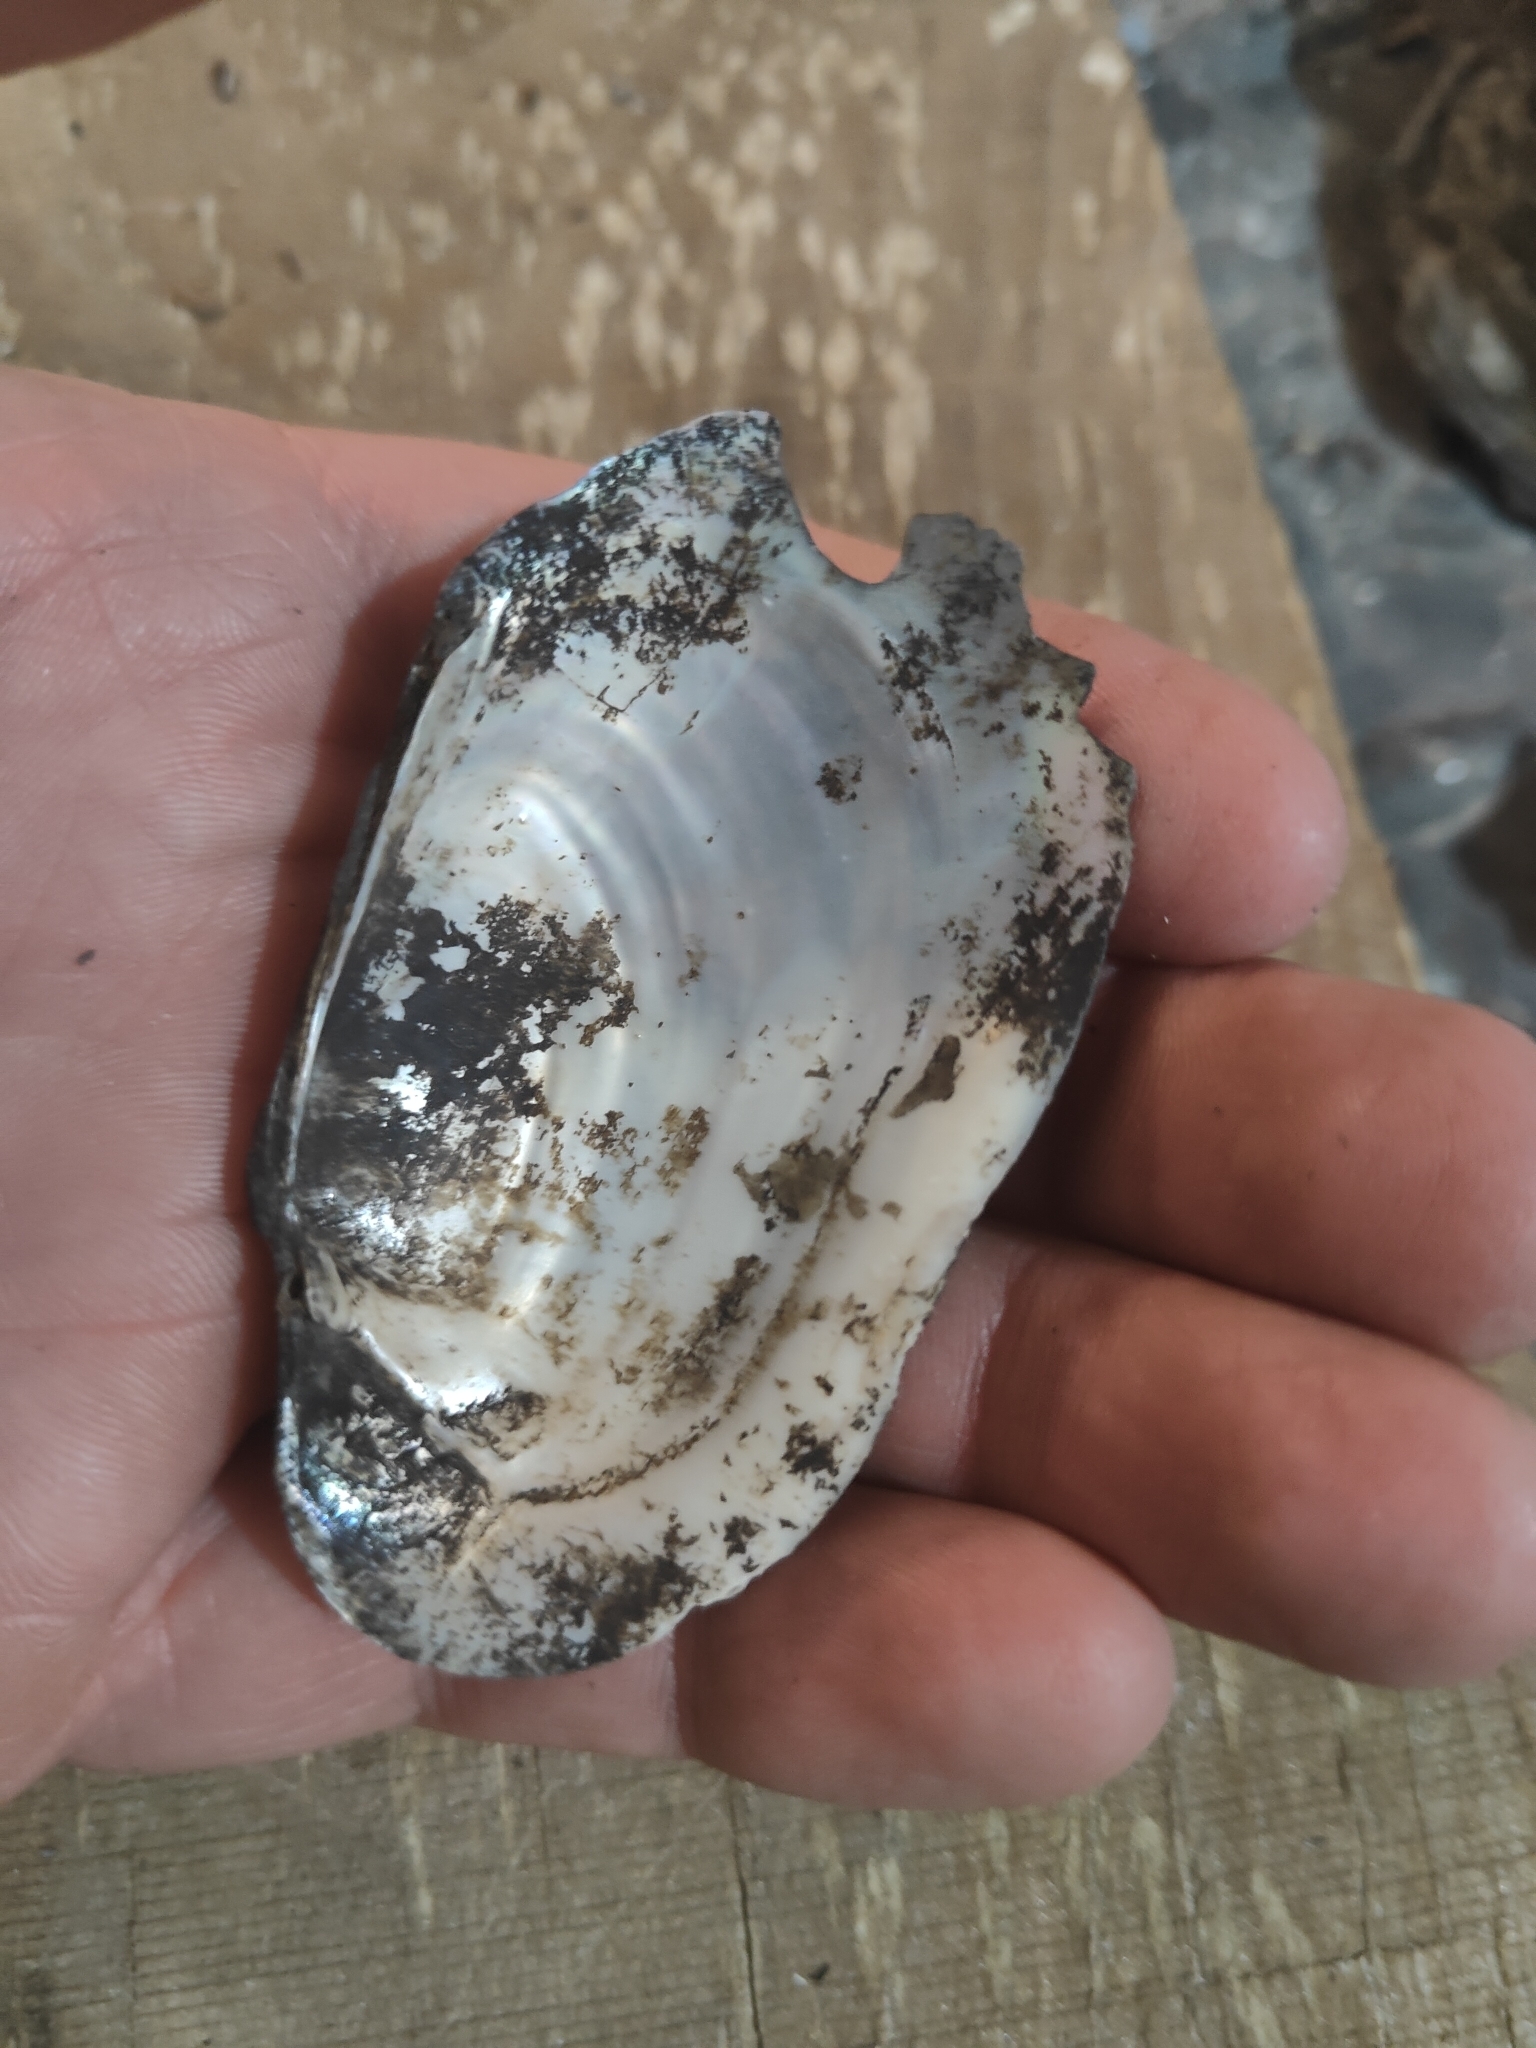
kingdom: Animalia
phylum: Mollusca
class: Bivalvia
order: Unionida
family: Unionidae
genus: Lampsilis
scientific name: Lampsilis siliquoidea
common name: Fatmucket
